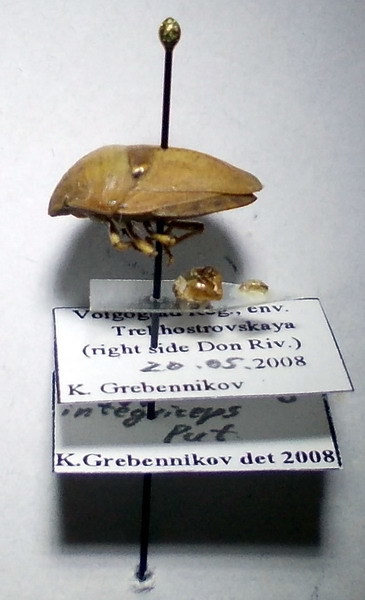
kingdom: Animalia
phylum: Arthropoda
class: Insecta
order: Hemiptera
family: Scutelleridae
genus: Eurygaster
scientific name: Eurygaster integriceps
